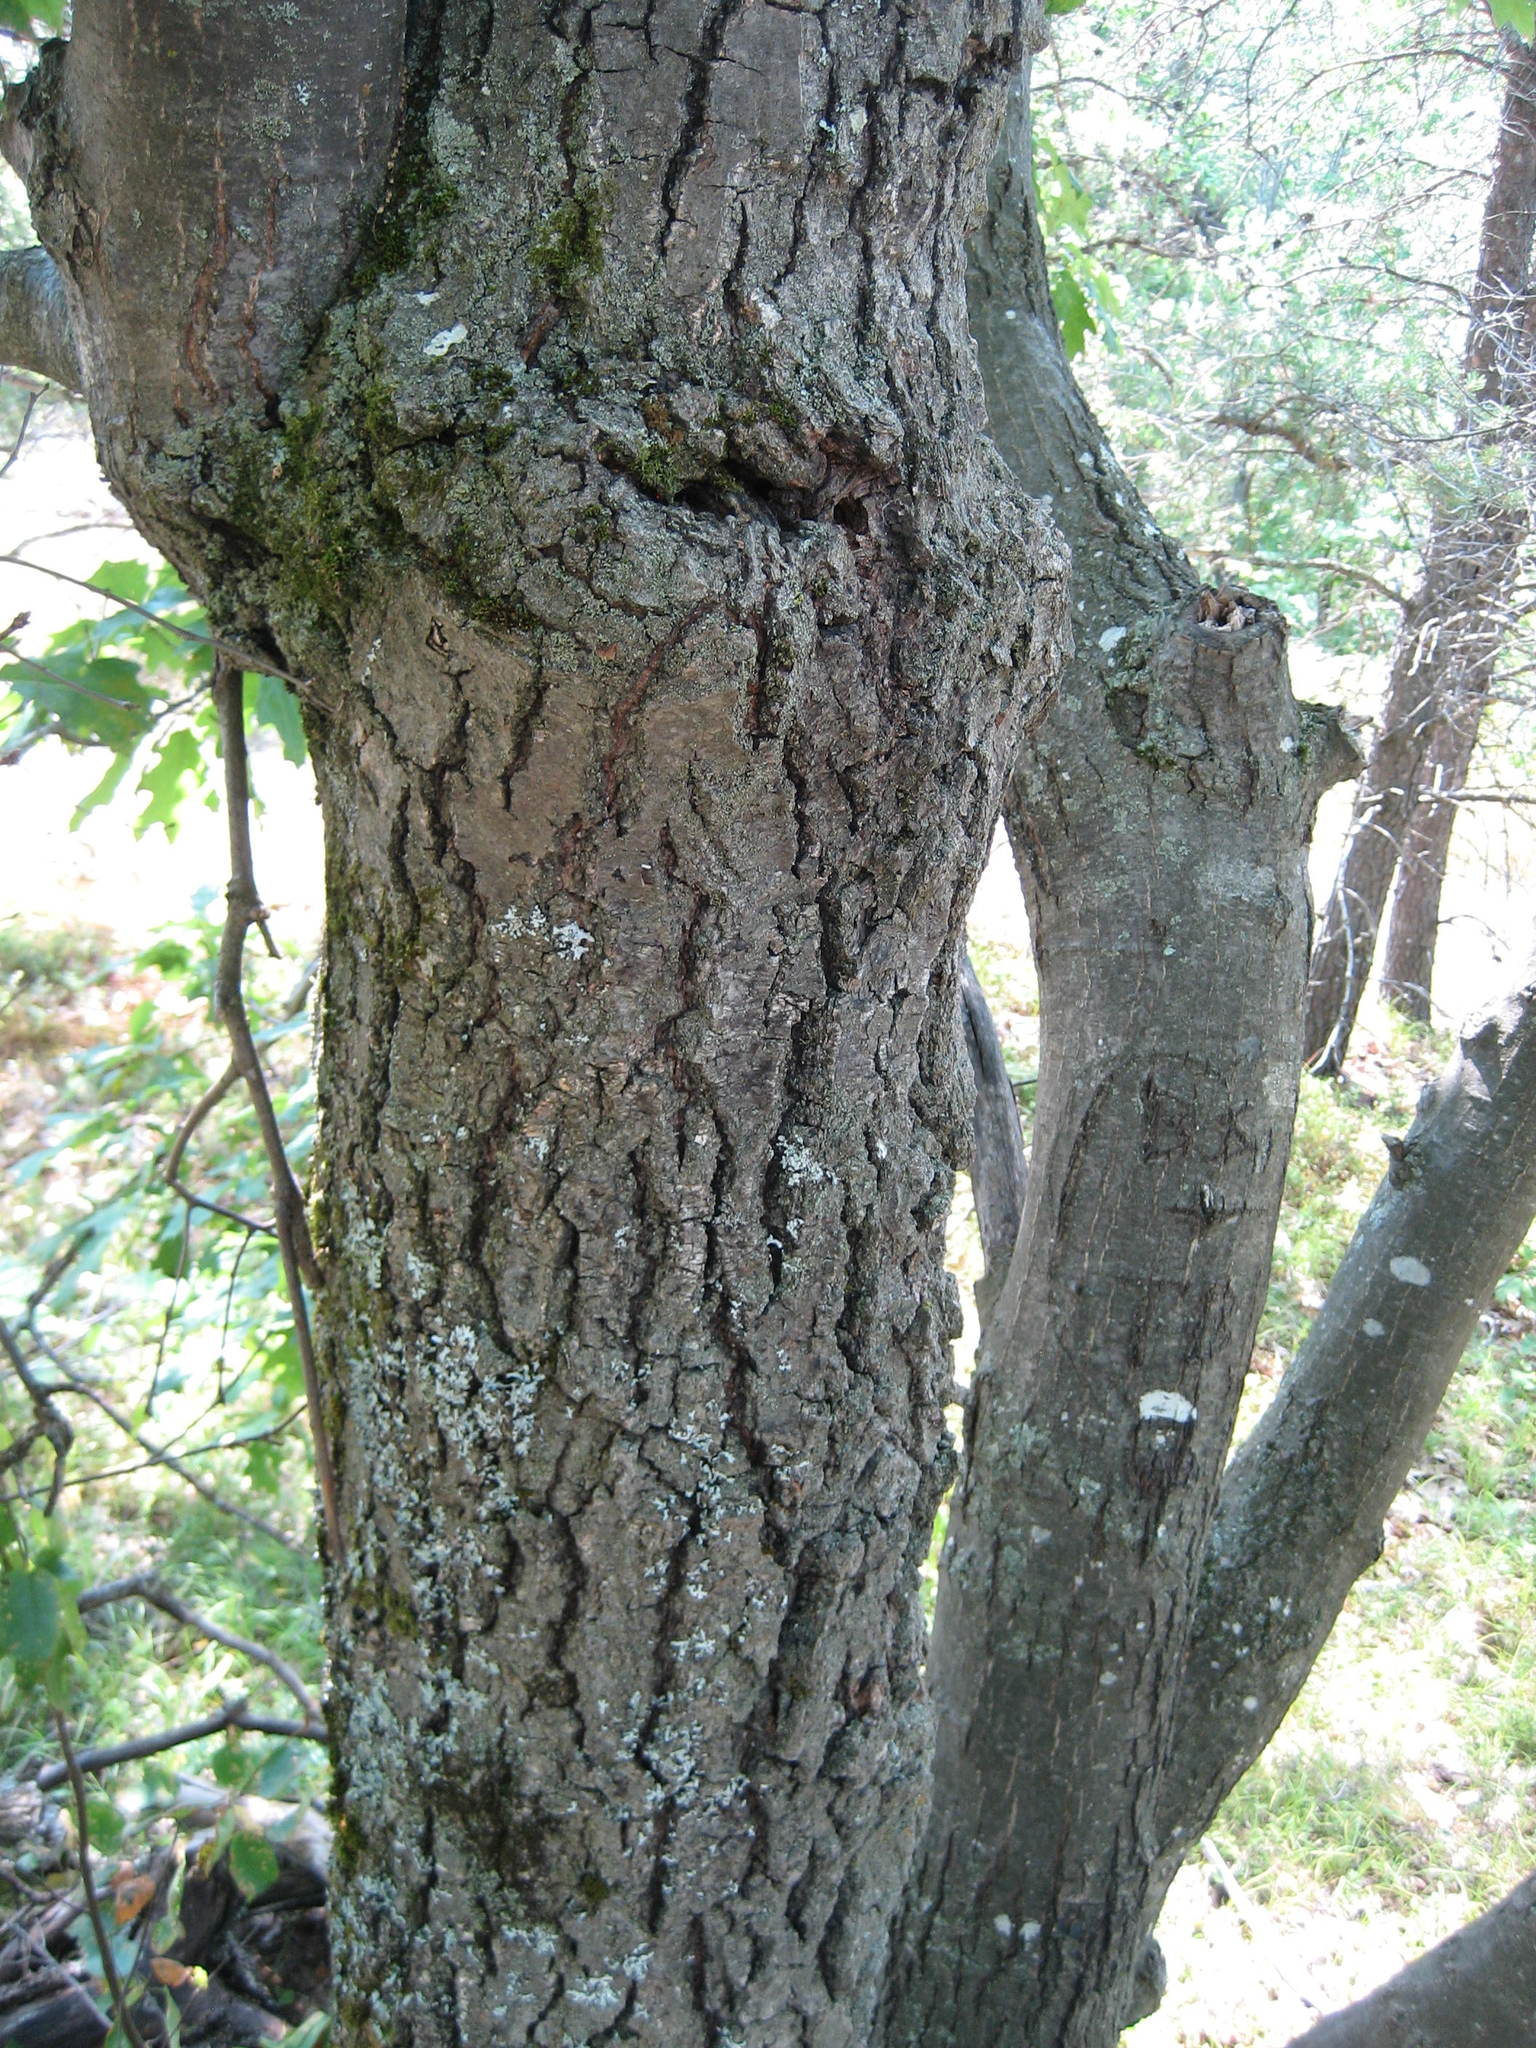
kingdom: Plantae
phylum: Tracheophyta
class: Magnoliopsida
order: Fagales
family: Fagaceae
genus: Quercus
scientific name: Quercus rubra
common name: Red oak
